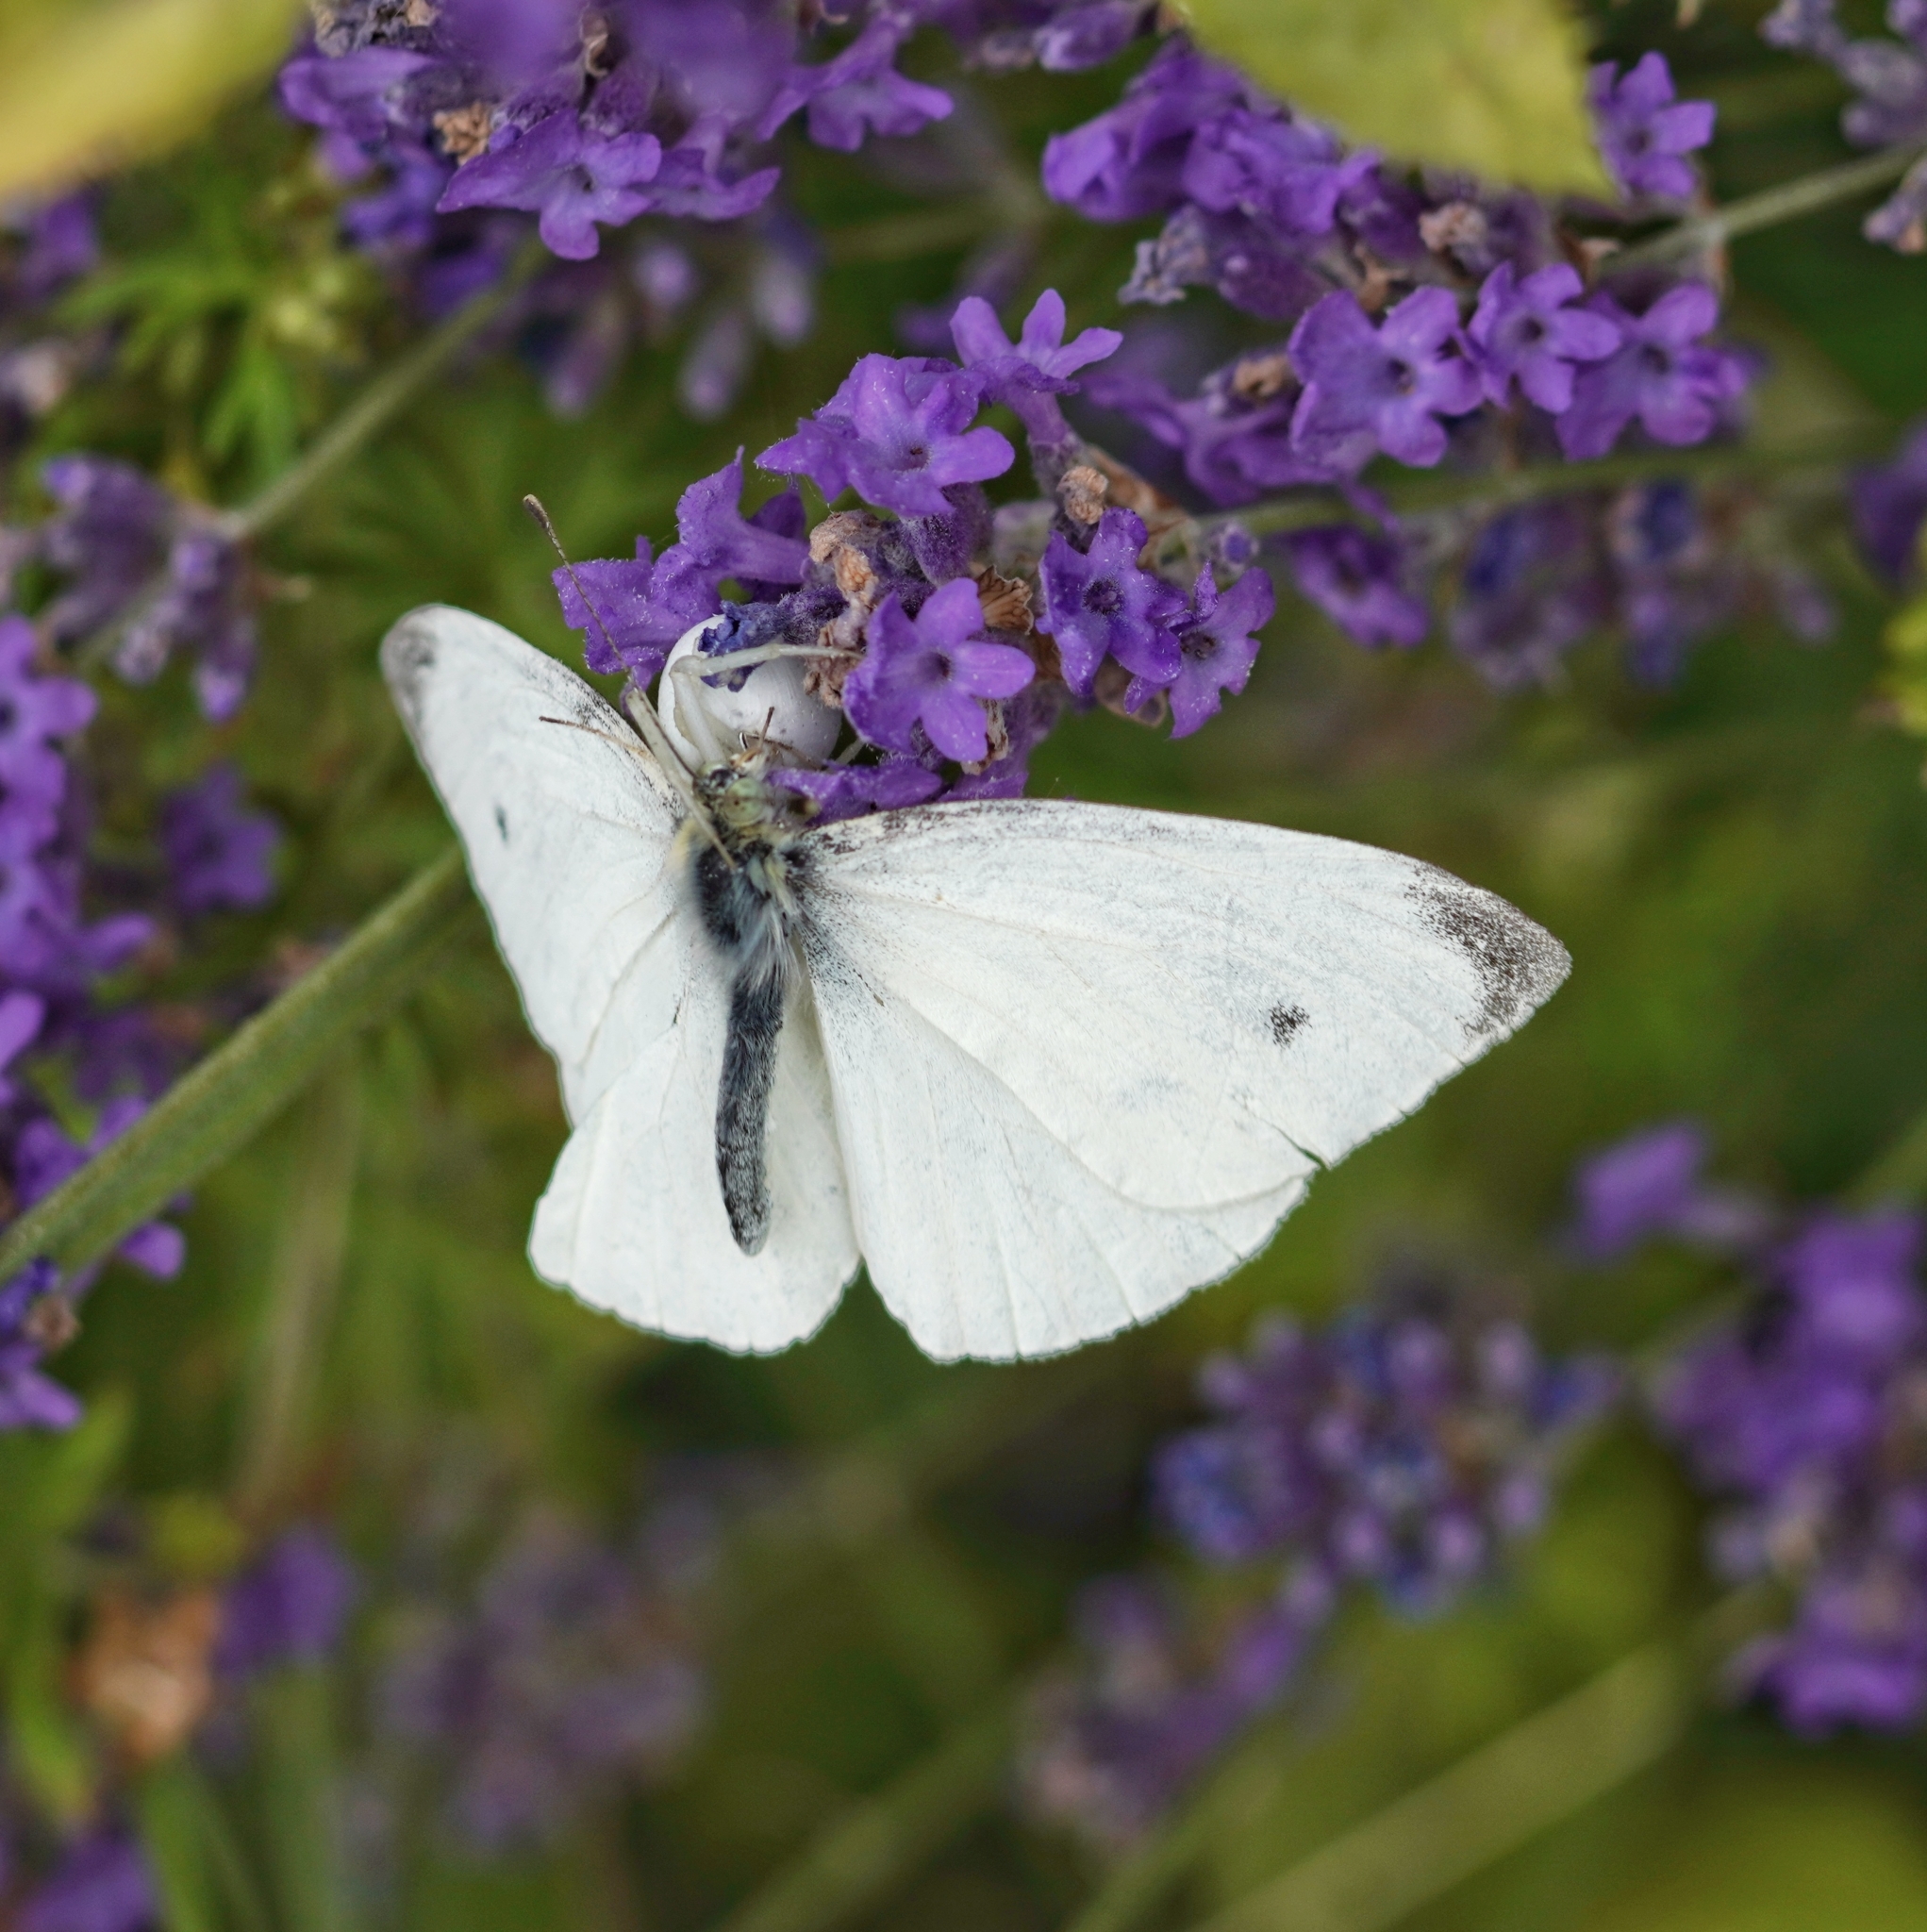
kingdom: Animalia
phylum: Arthropoda
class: Insecta
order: Lepidoptera
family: Pieridae
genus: Pieris
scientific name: Pieris rapae
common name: Small white
